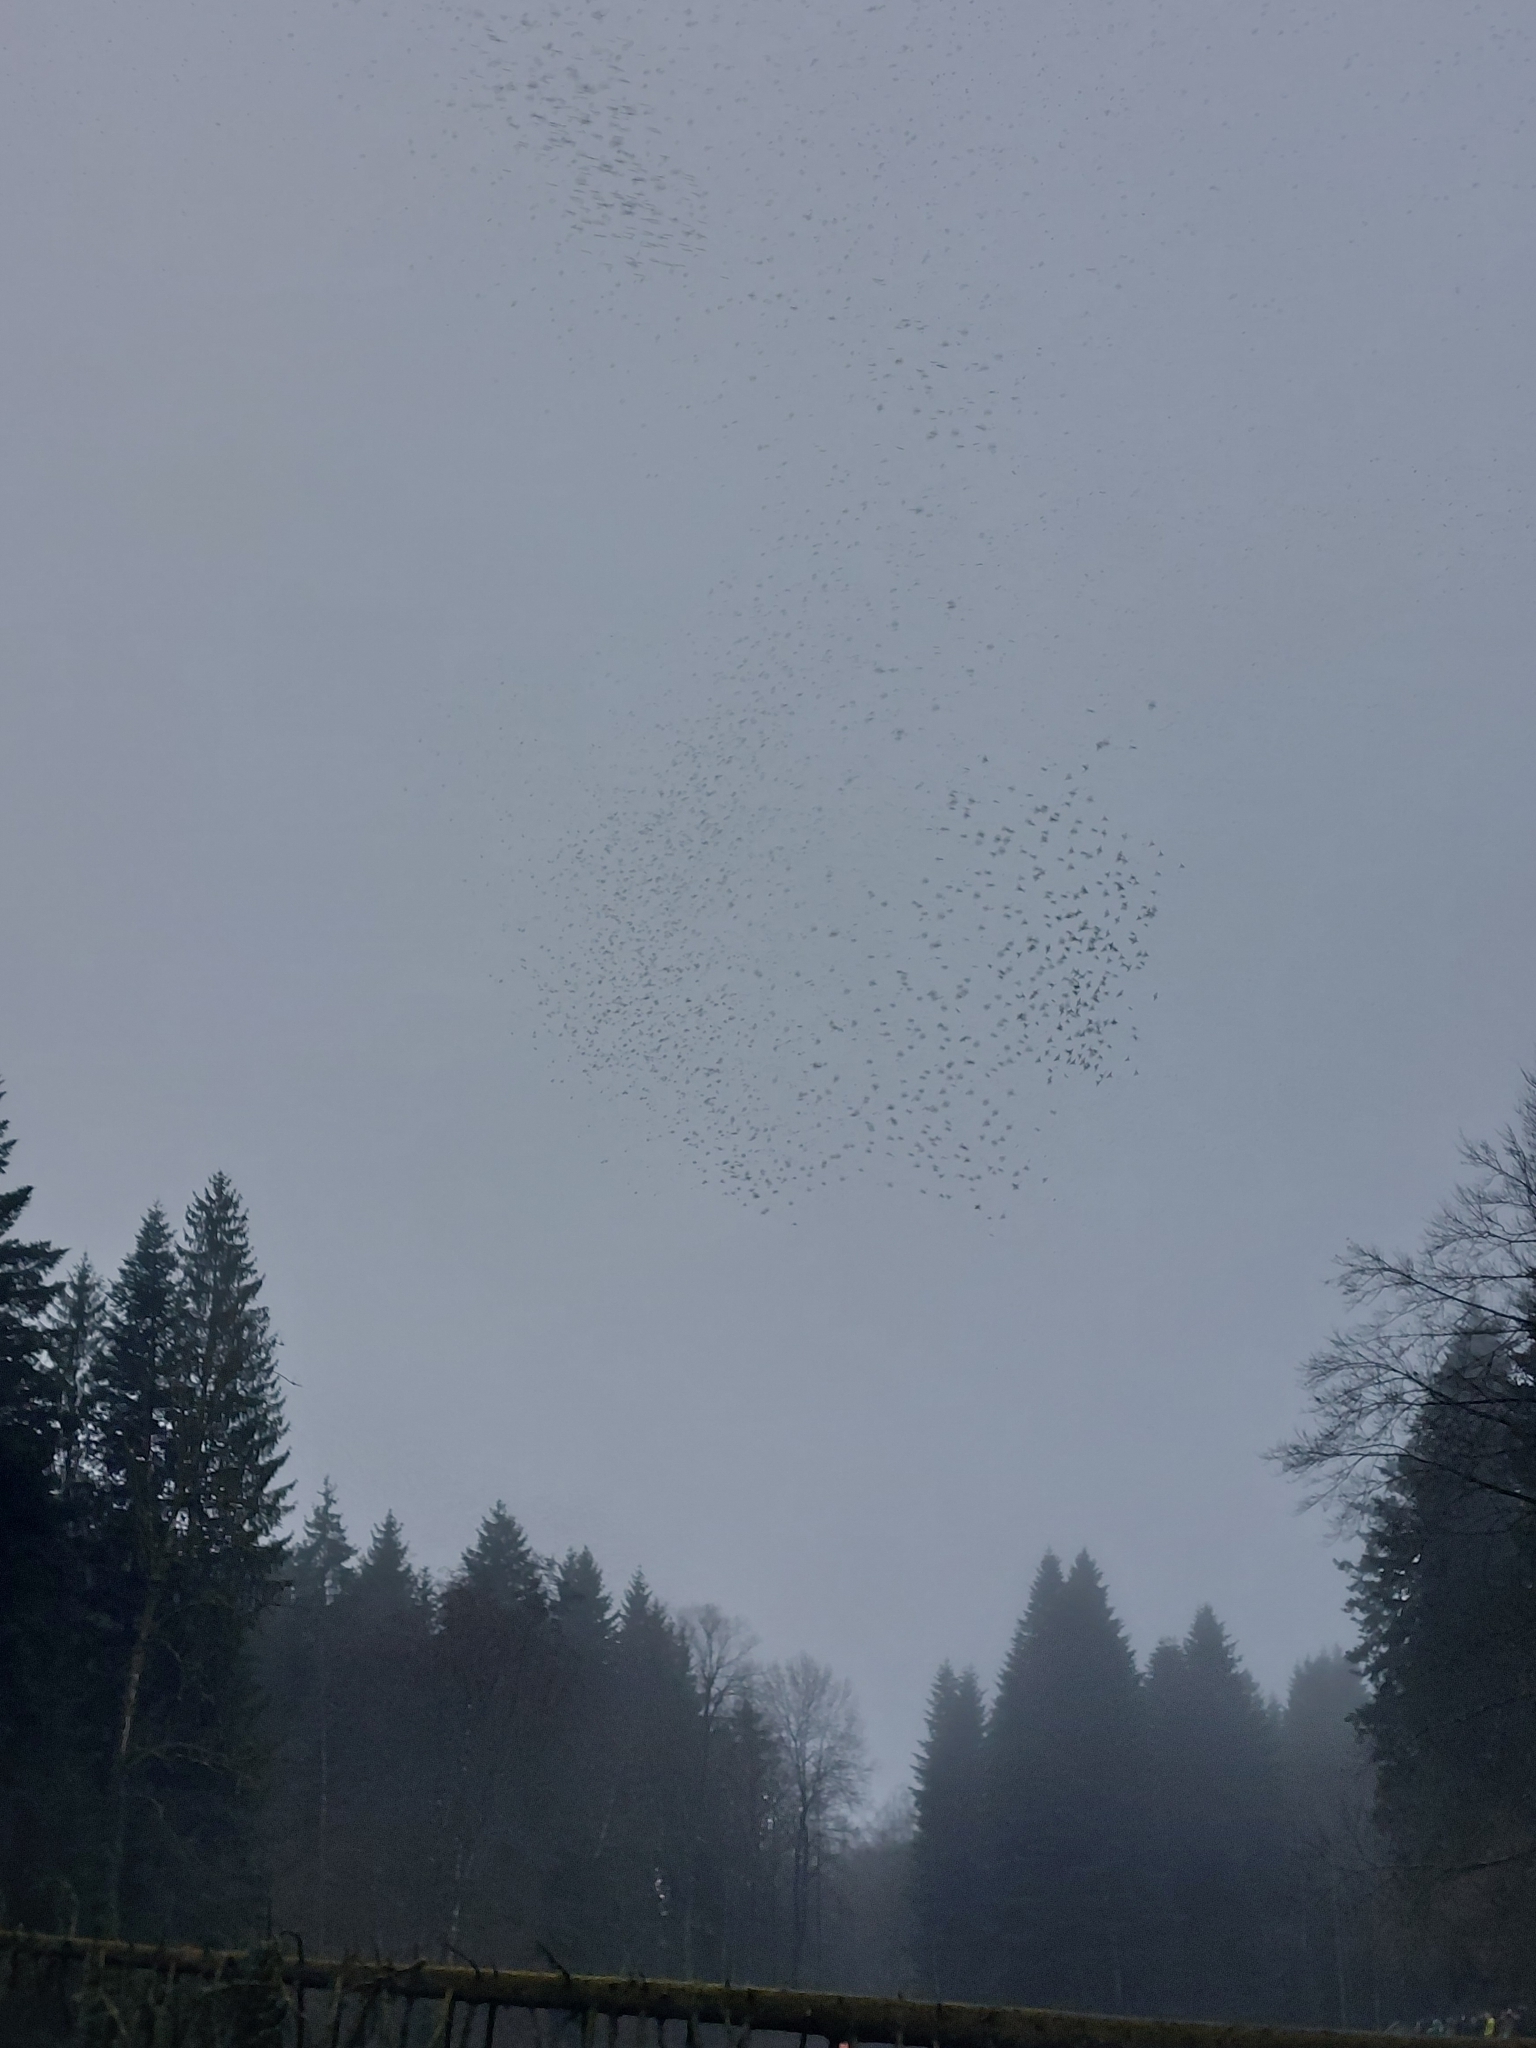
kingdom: Animalia
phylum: Chordata
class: Aves
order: Passeriformes
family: Fringillidae
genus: Fringilla
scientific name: Fringilla montifringilla
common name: Brambling
